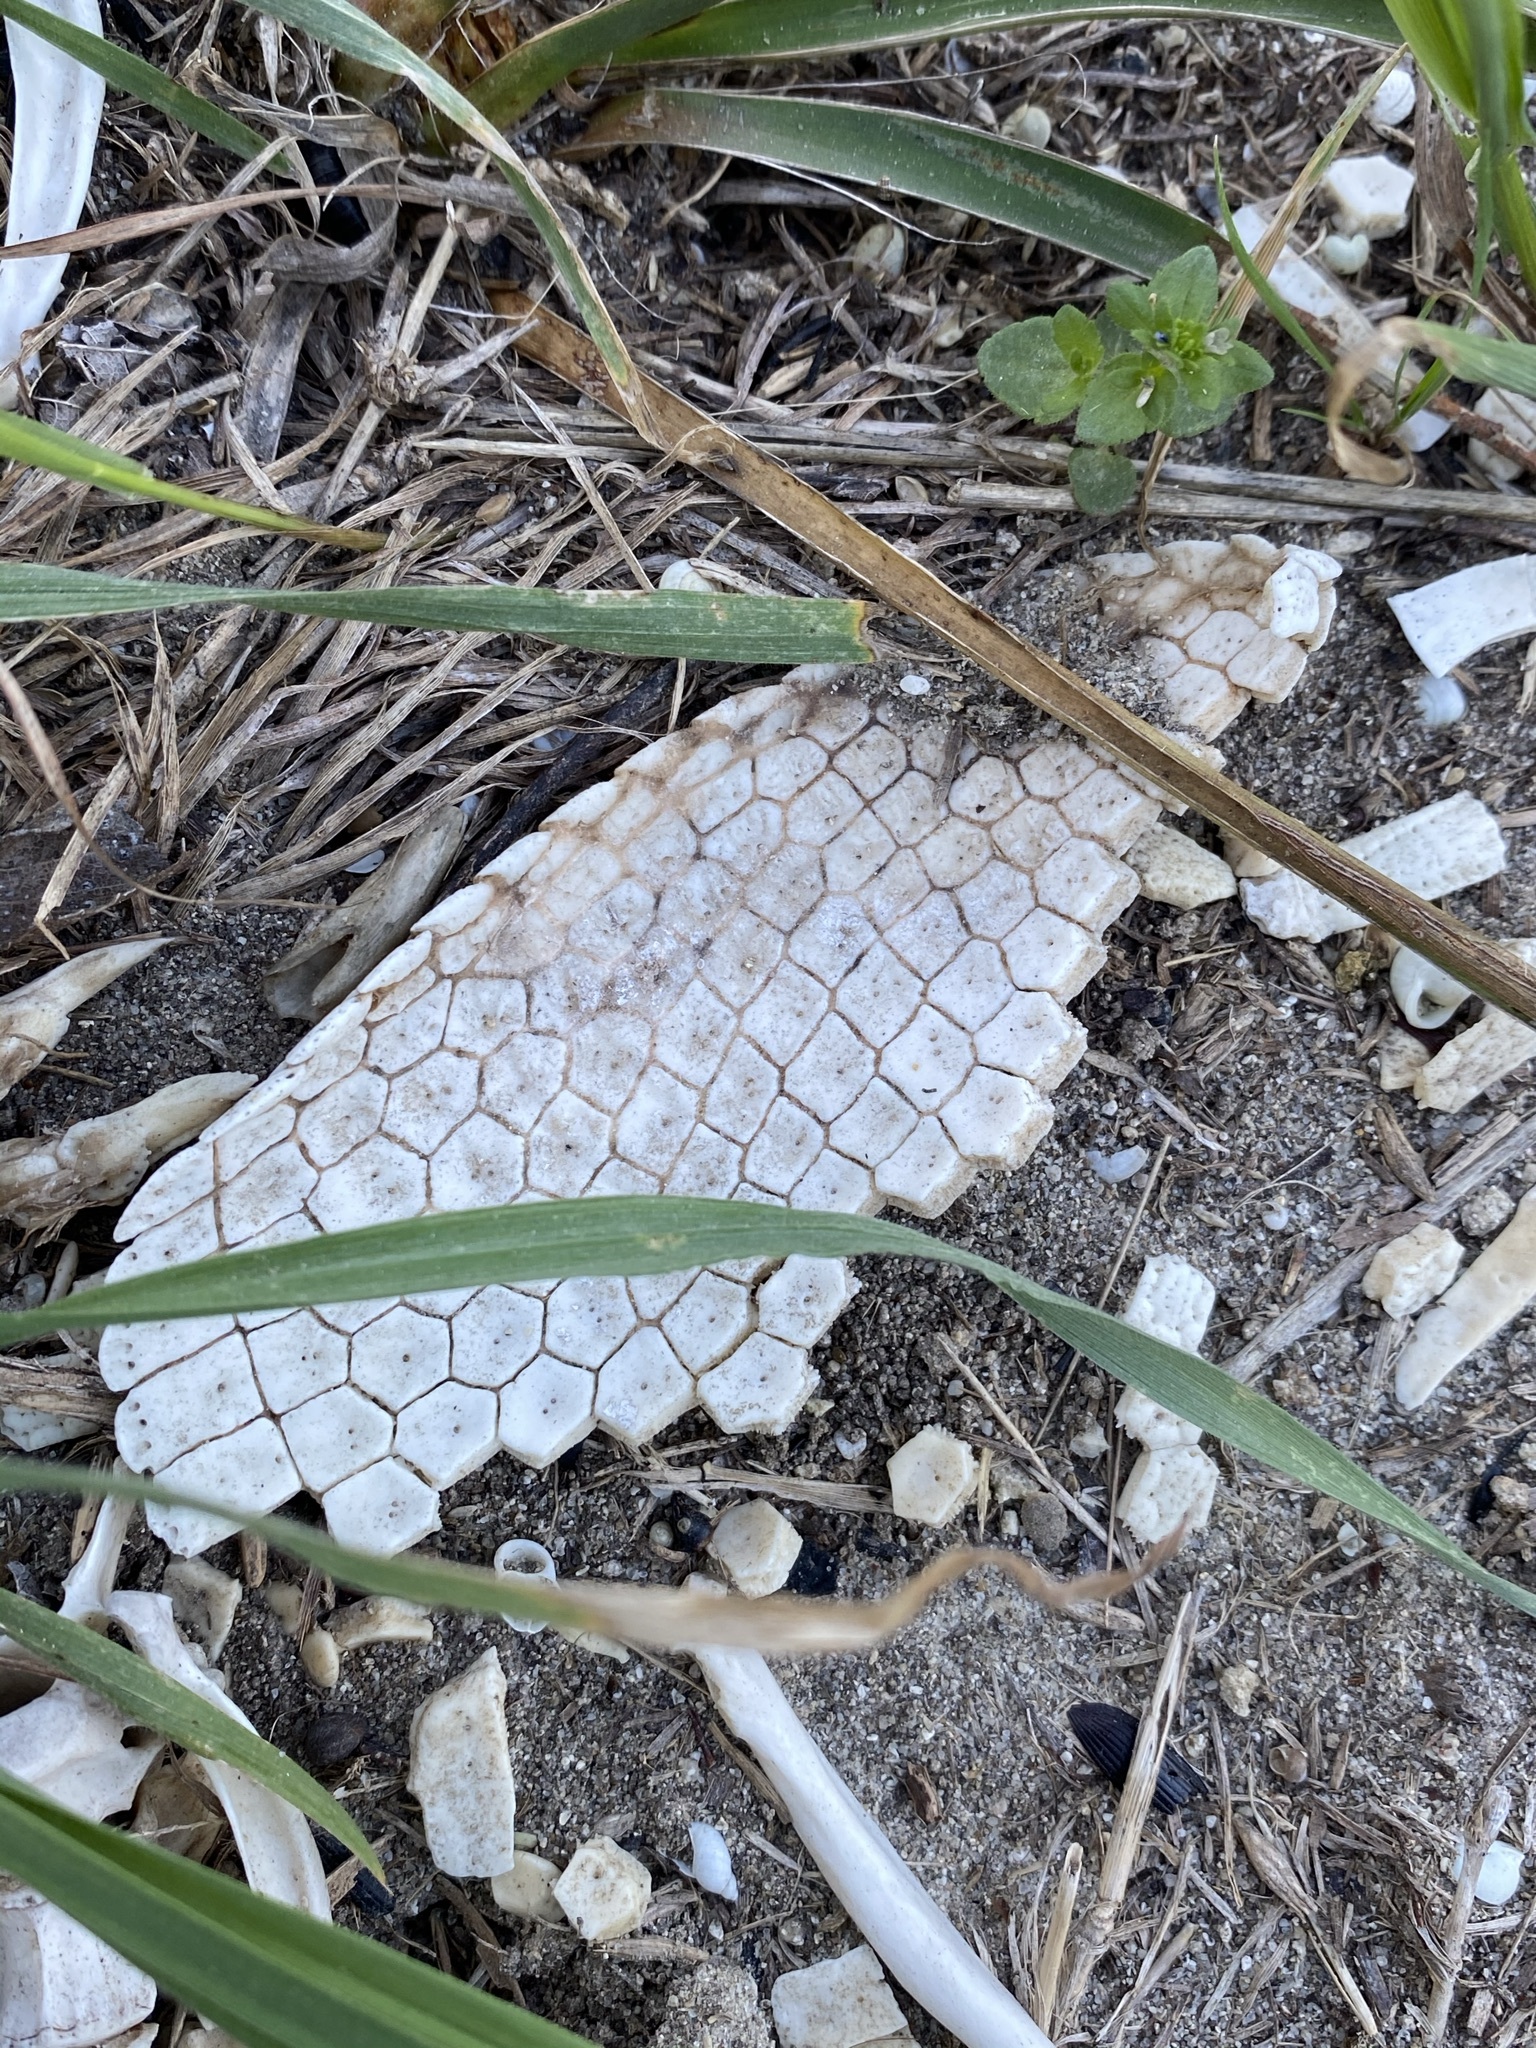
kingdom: Animalia
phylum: Chordata
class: Mammalia
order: Cingulata
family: Dasypodidae
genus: Dasypus
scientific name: Dasypus novemcinctus
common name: Nine-banded armadillo
